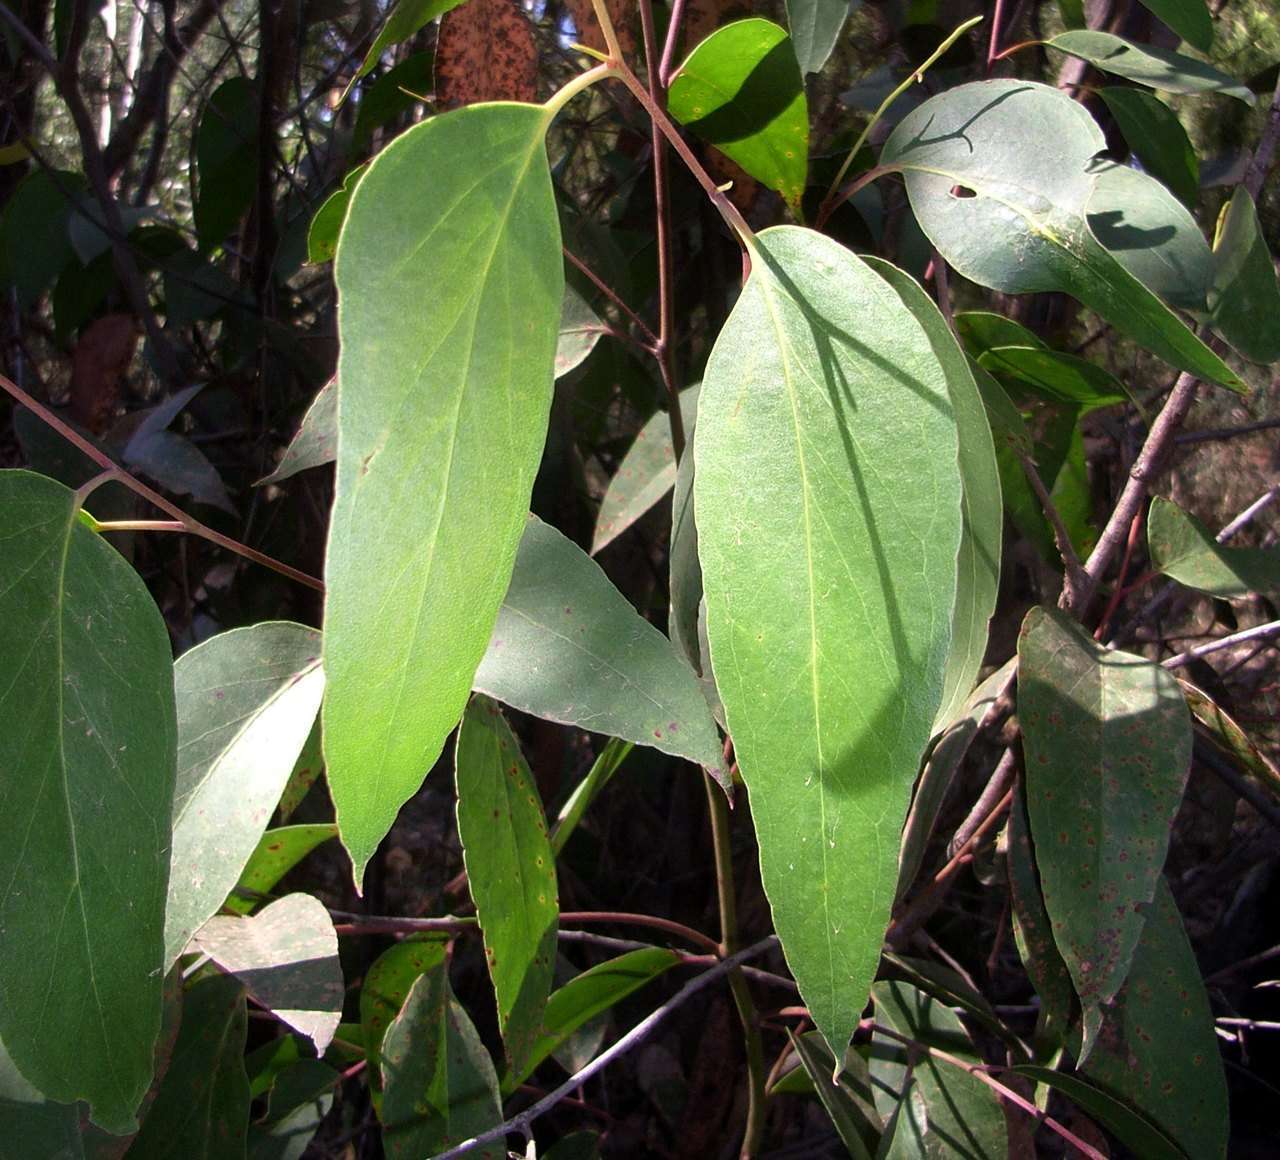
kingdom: Plantae
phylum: Tracheophyta
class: Magnoliopsida
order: Myrtales
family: Myrtaceae
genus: Eucalyptus
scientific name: Eucalyptus obliqua
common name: Messmate stringybark
